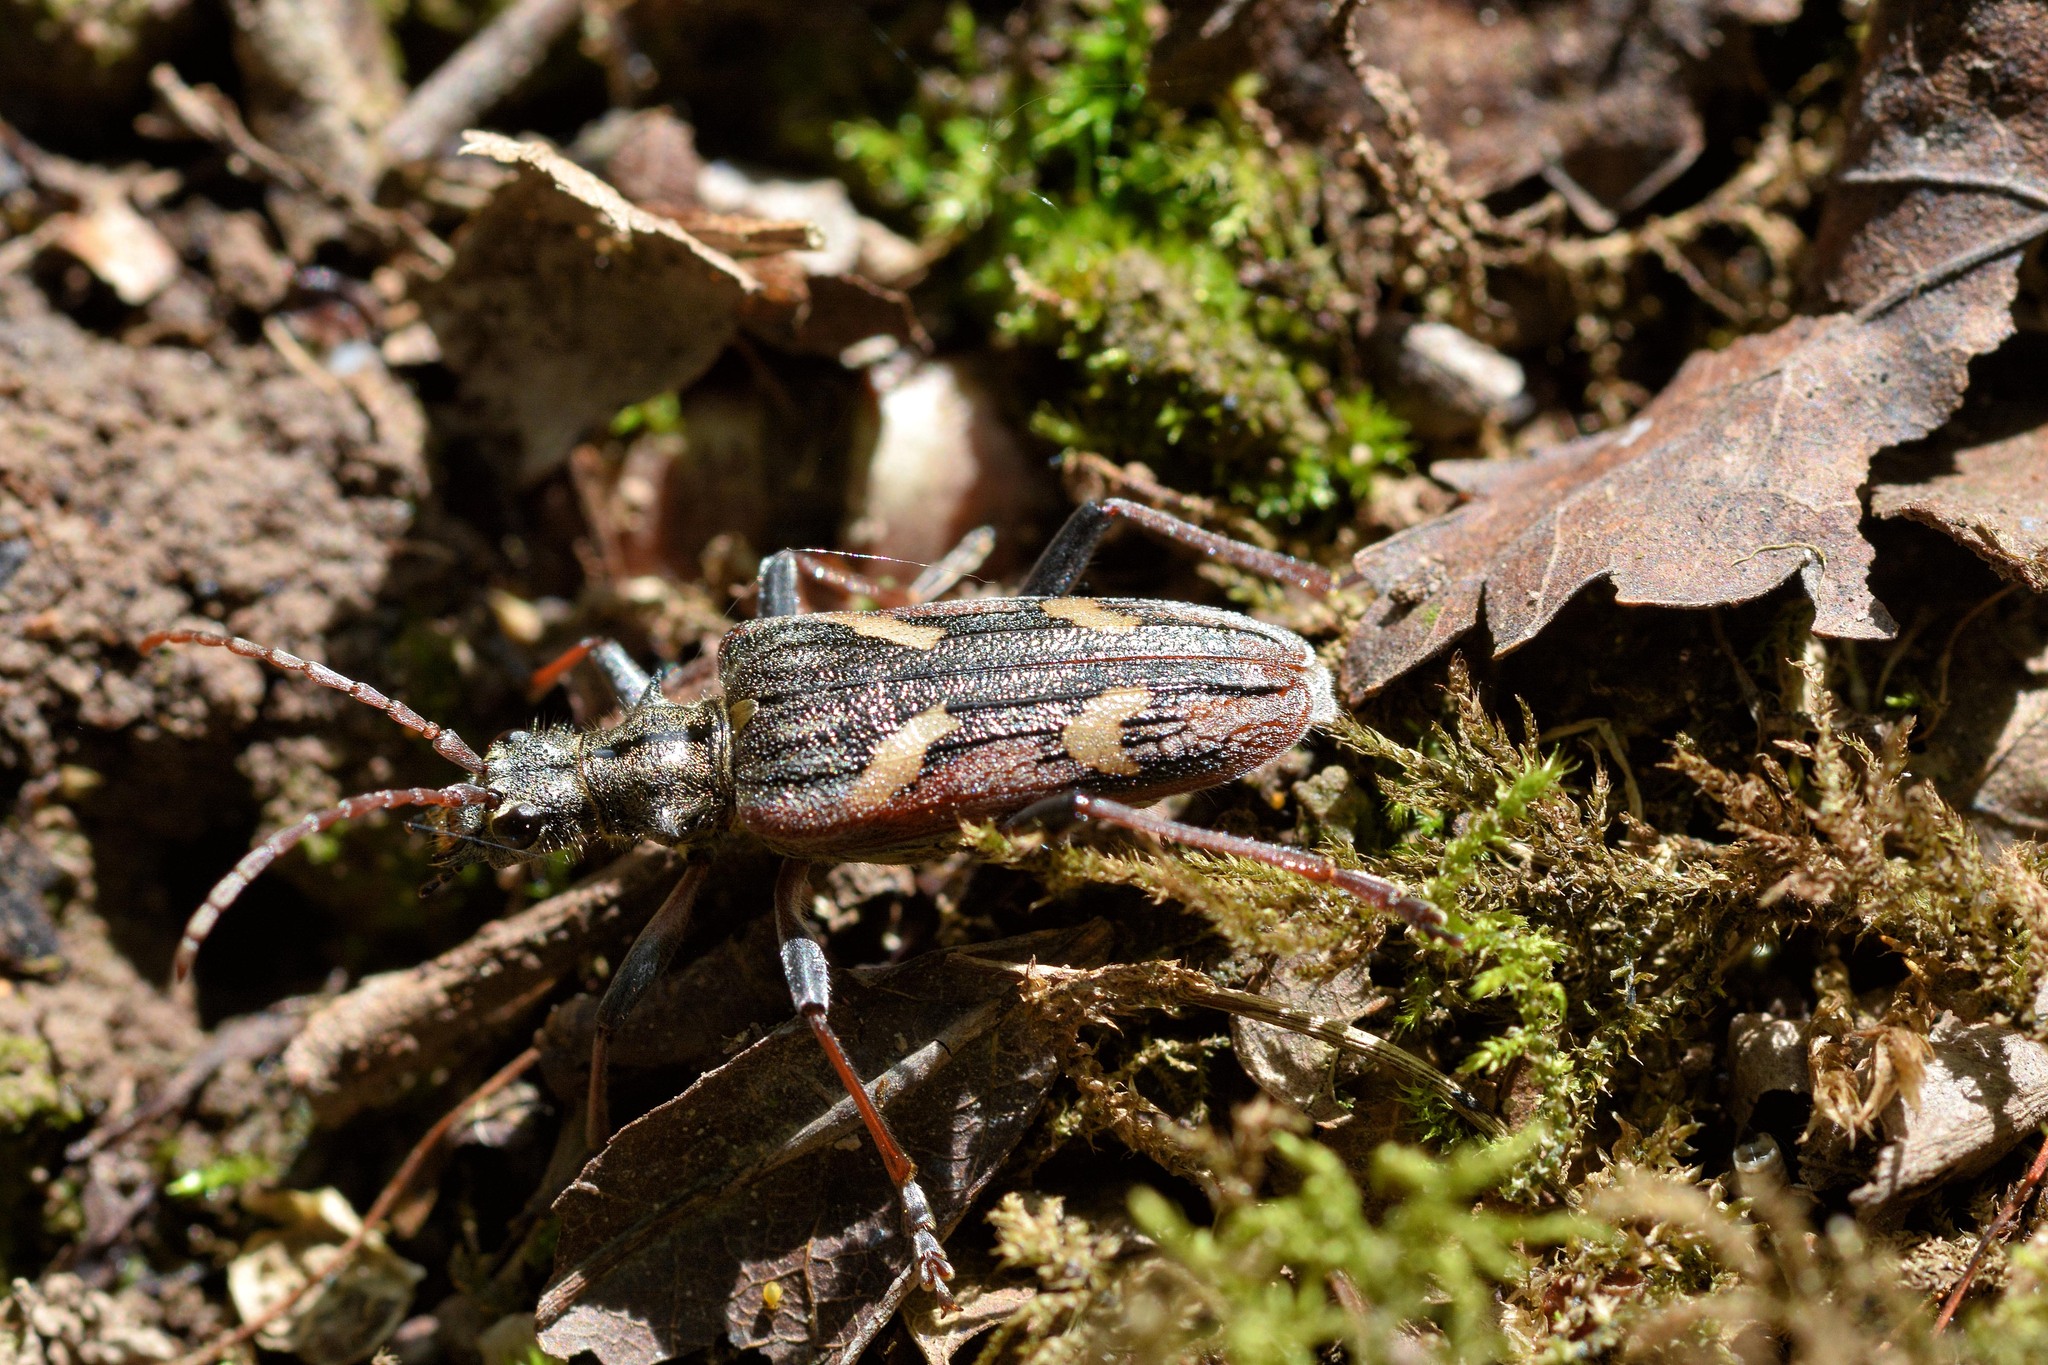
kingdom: Animalia
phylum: Arthropoda
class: Insecta
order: Coleoptera
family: Cerambycidae
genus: Rhagium
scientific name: Rhagium bifasciatum
